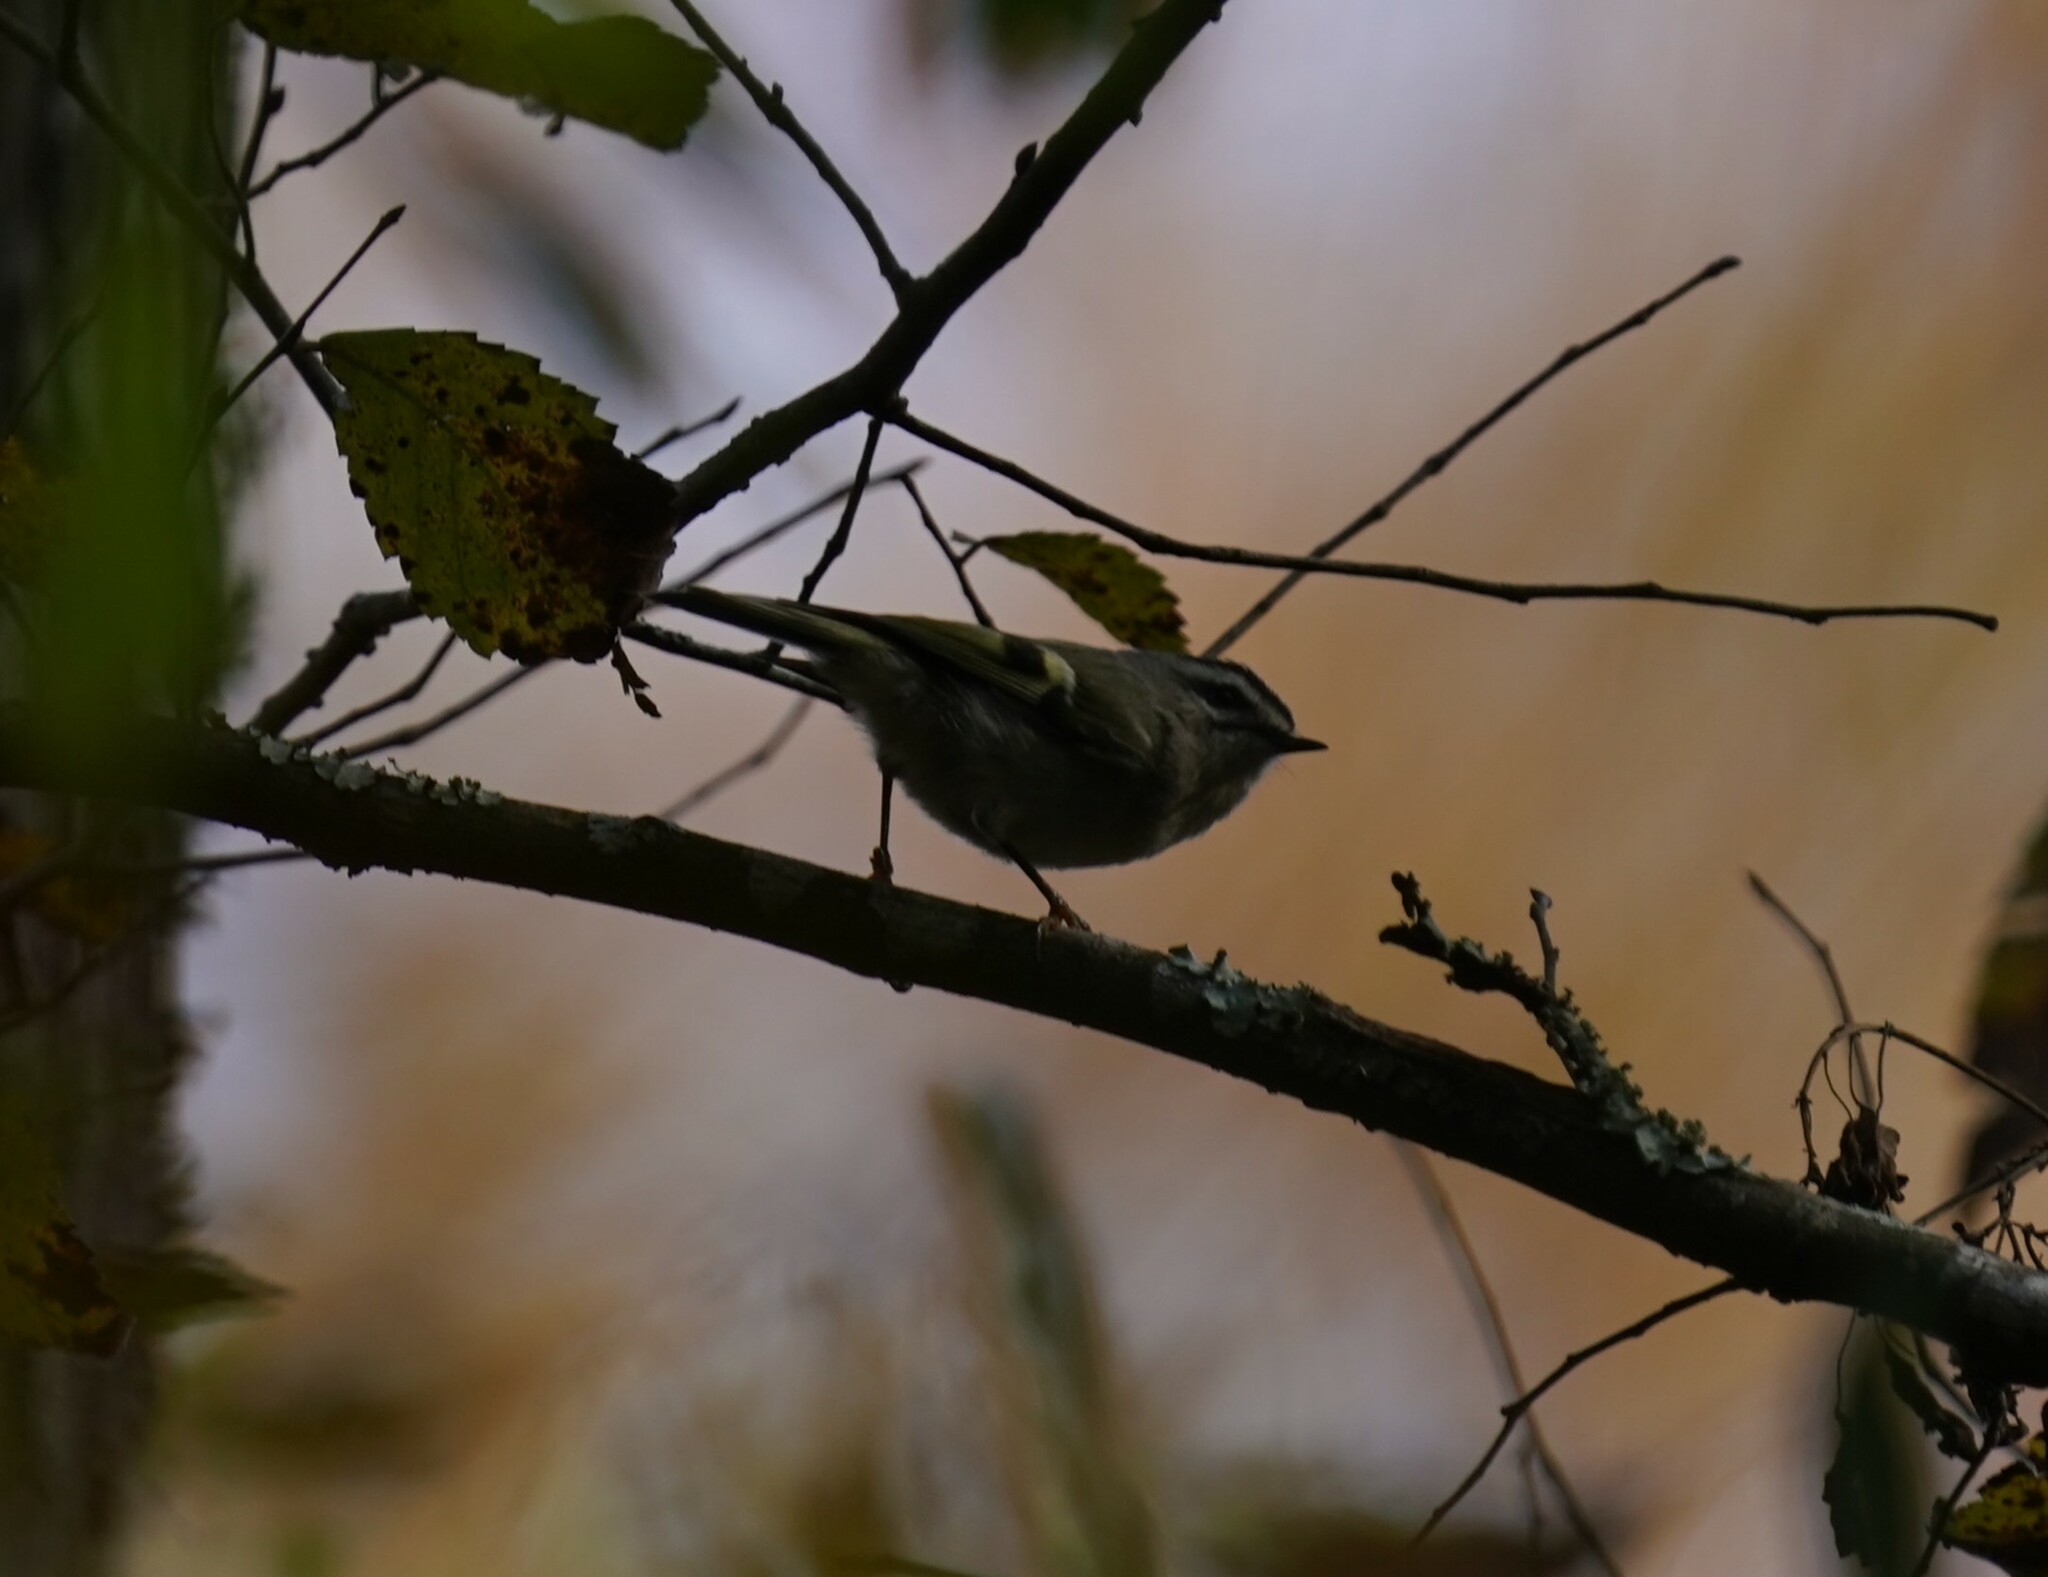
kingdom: Animalia
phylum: Chordata
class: Aves
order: Passeriformes
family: Regulidae
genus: Regulus
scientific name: Regulus satrapa
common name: Golden-crowned kinglet
